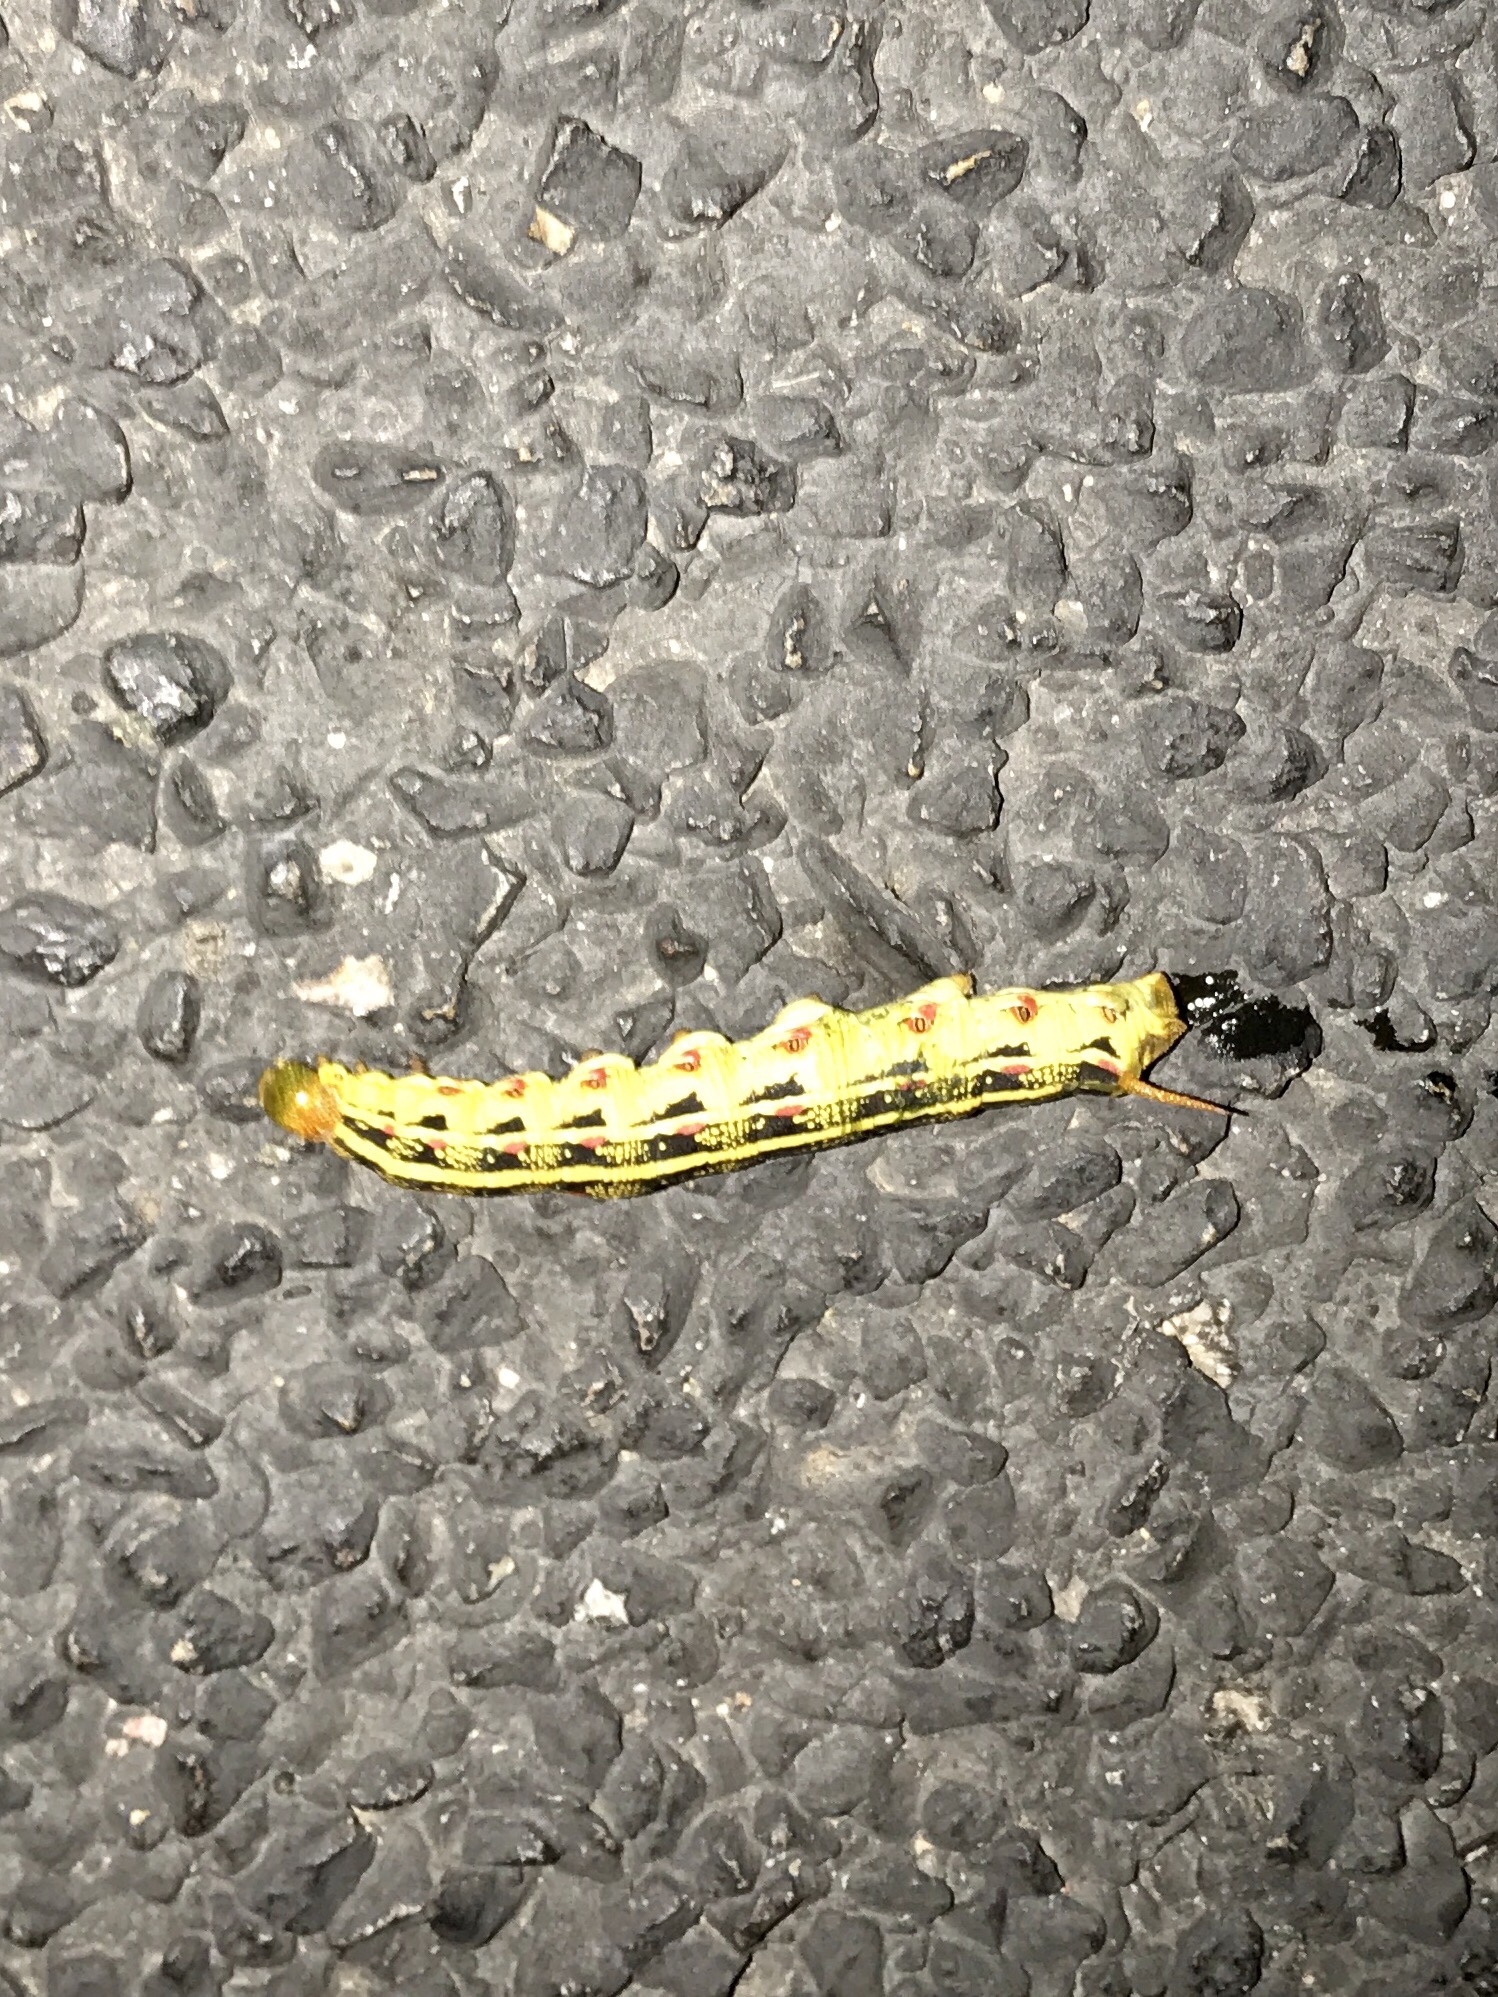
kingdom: Animalia
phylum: Arthropoda
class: Insecta
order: Lepidoptera
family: Sphingidae
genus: Hyles
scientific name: Hyles lineata
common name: White-lined sphinx
